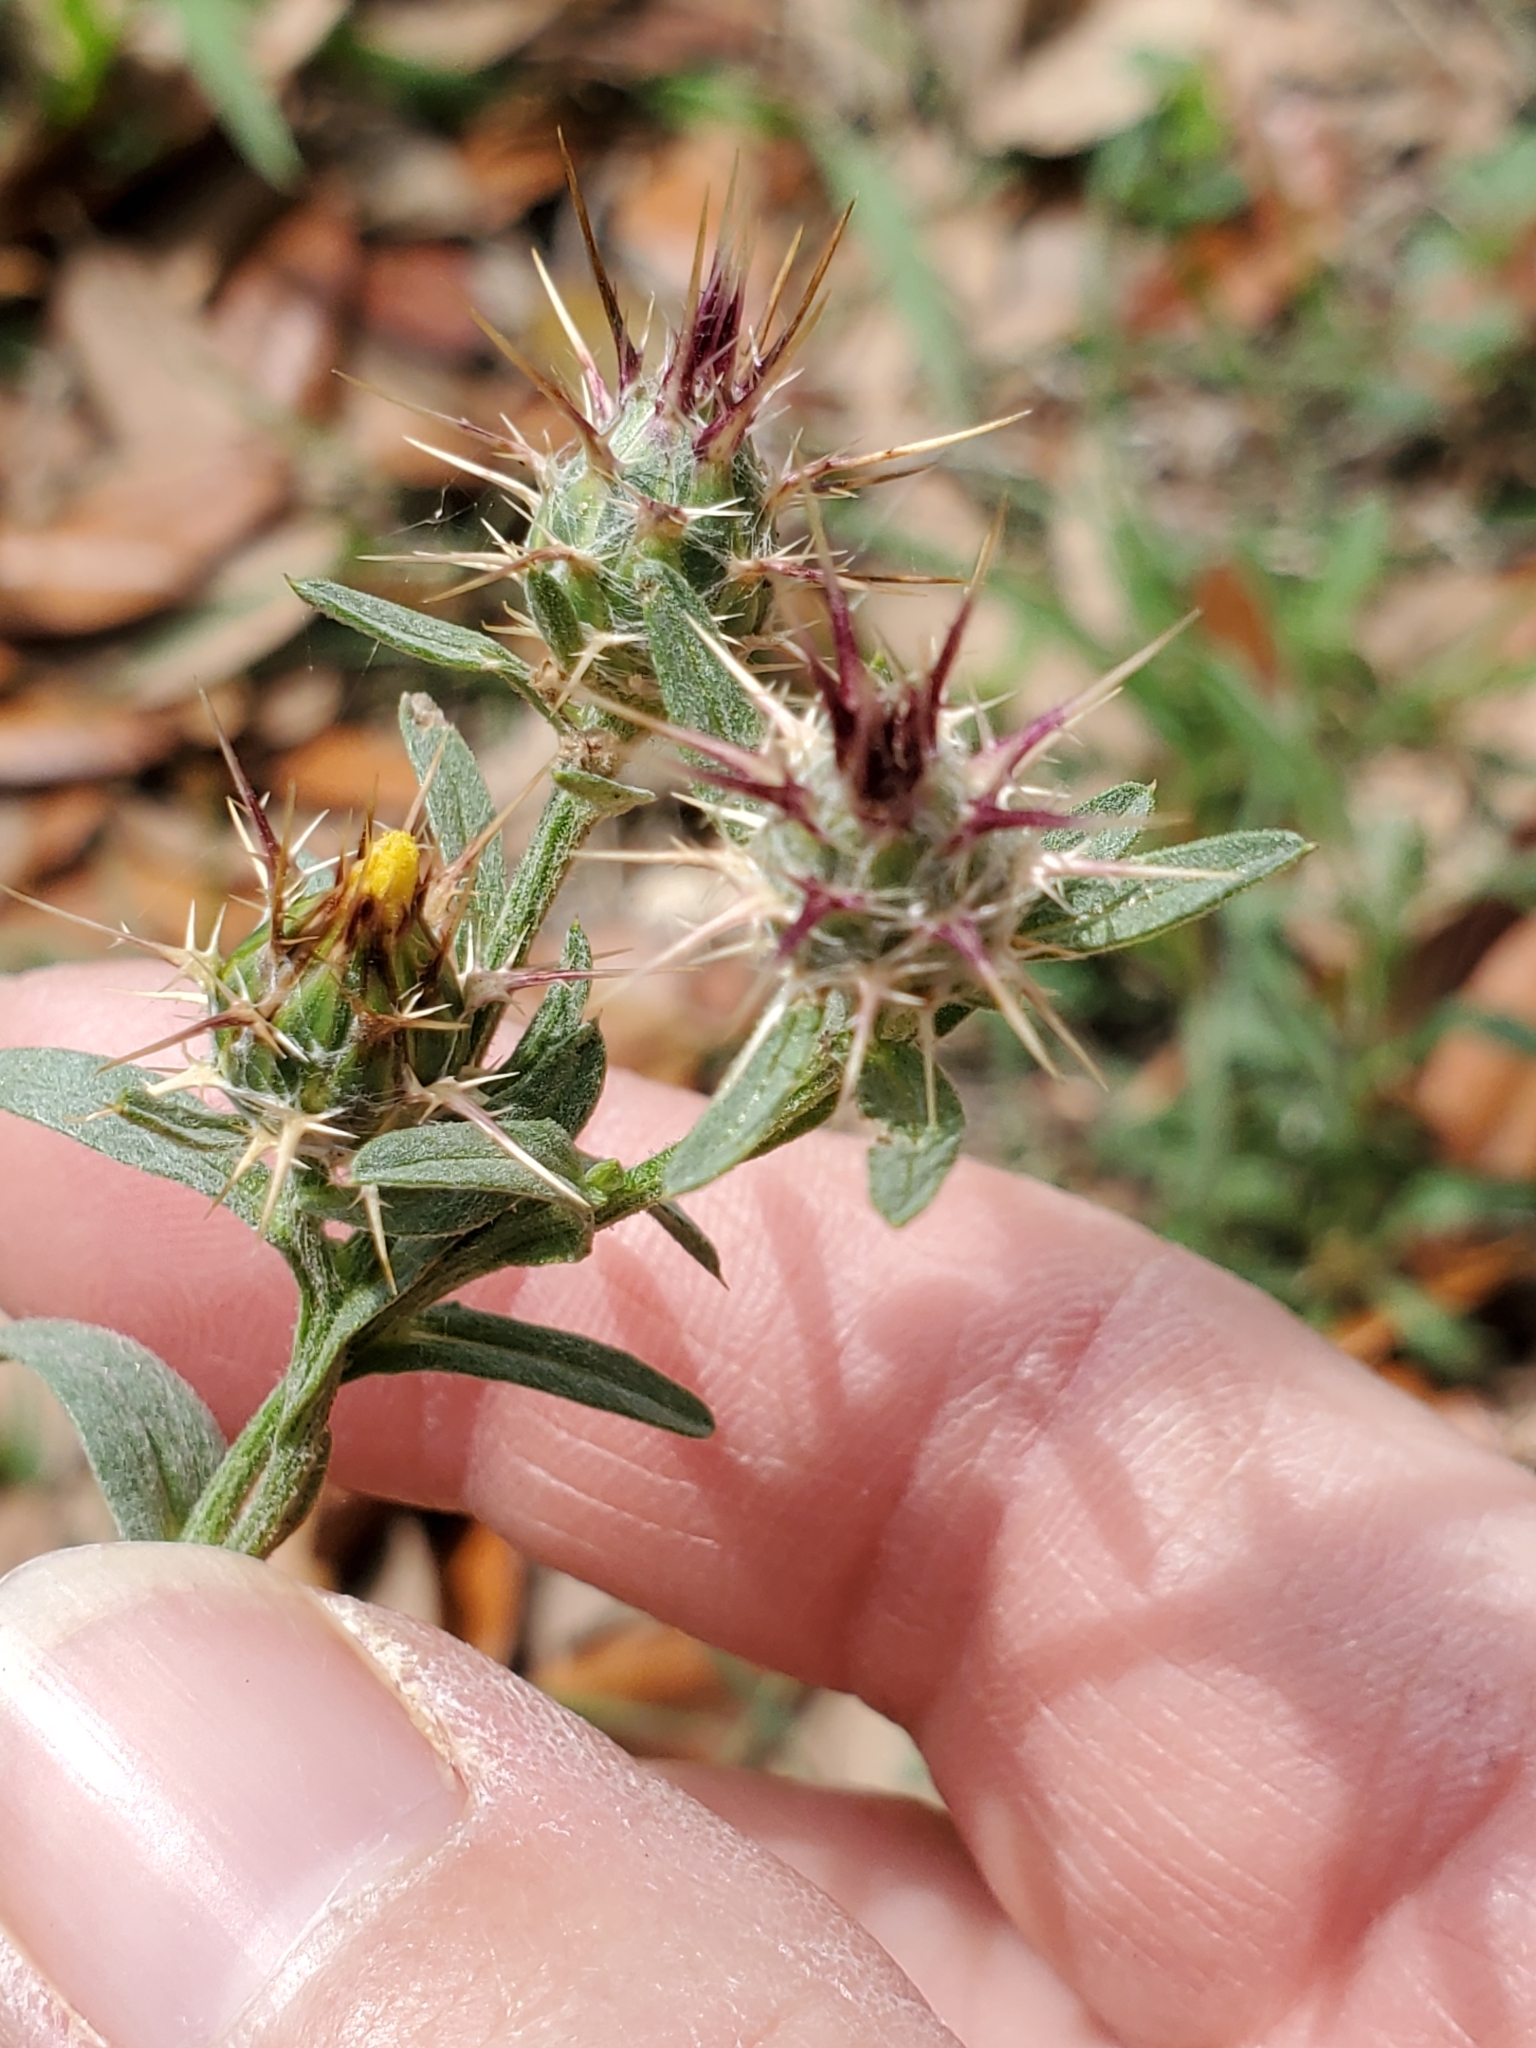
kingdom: Plantae
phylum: Tracheophyta
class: Magnoliopsida
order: Asterales
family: Asteraceae
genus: Centaurea
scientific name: Centaurea melitensis
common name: Maltese star-thistle
